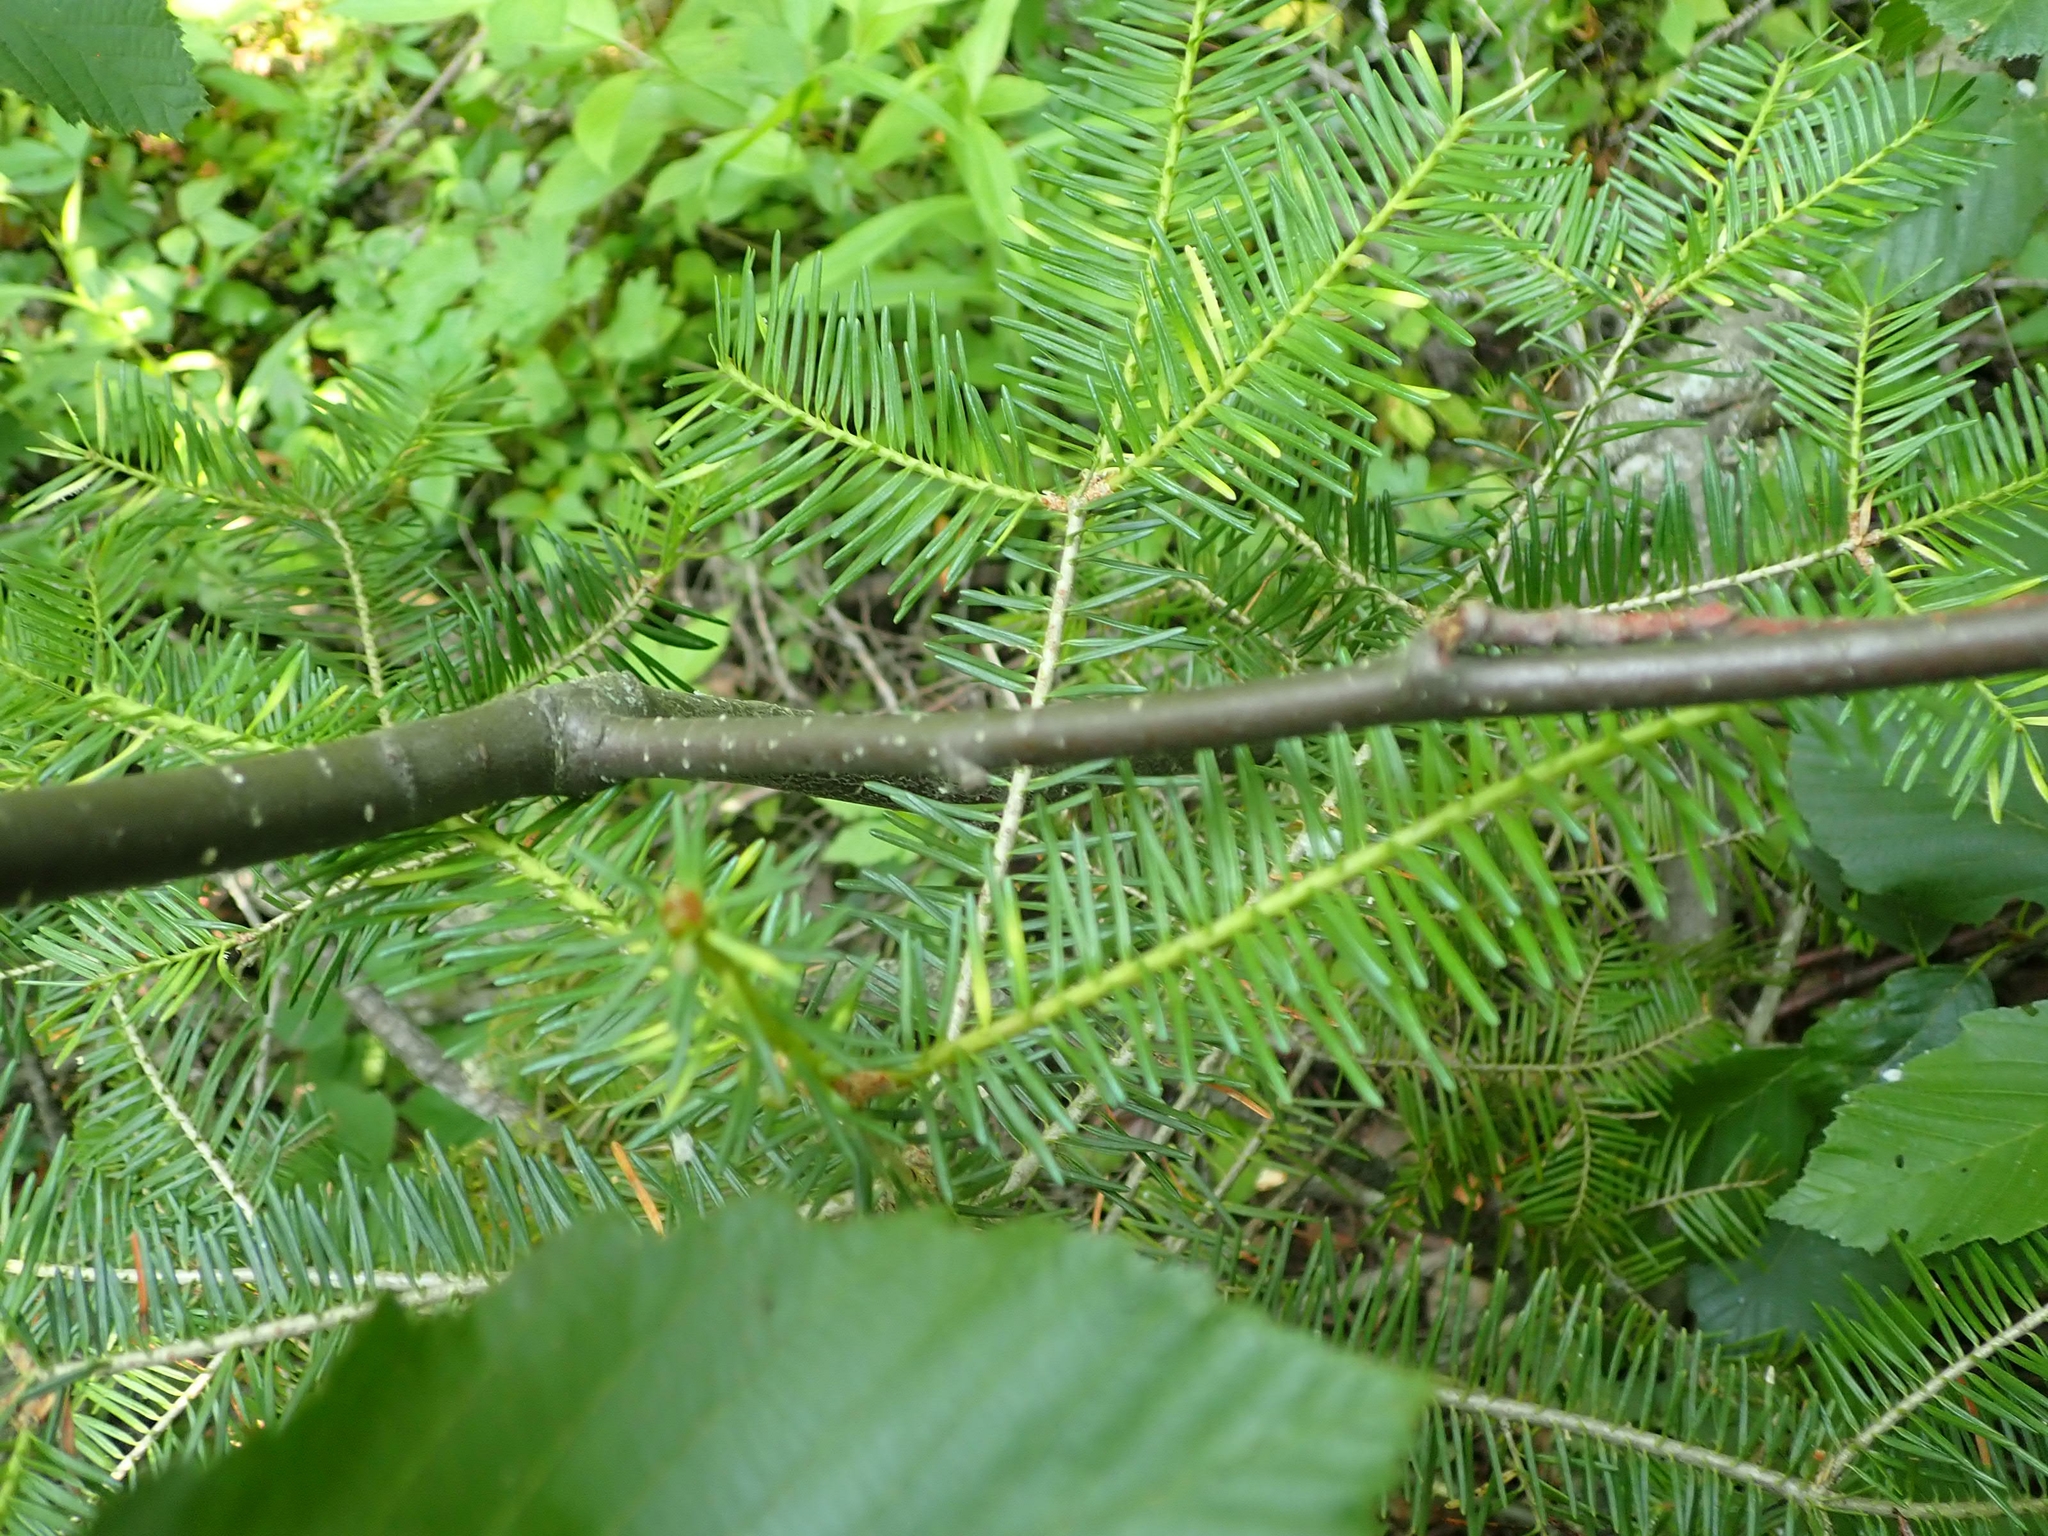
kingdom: Plantae
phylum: Tracheophyta
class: Magnoliopsida
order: Fagales
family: Betulaceae
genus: Alnus
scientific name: Alnus incana
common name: Grey alder
